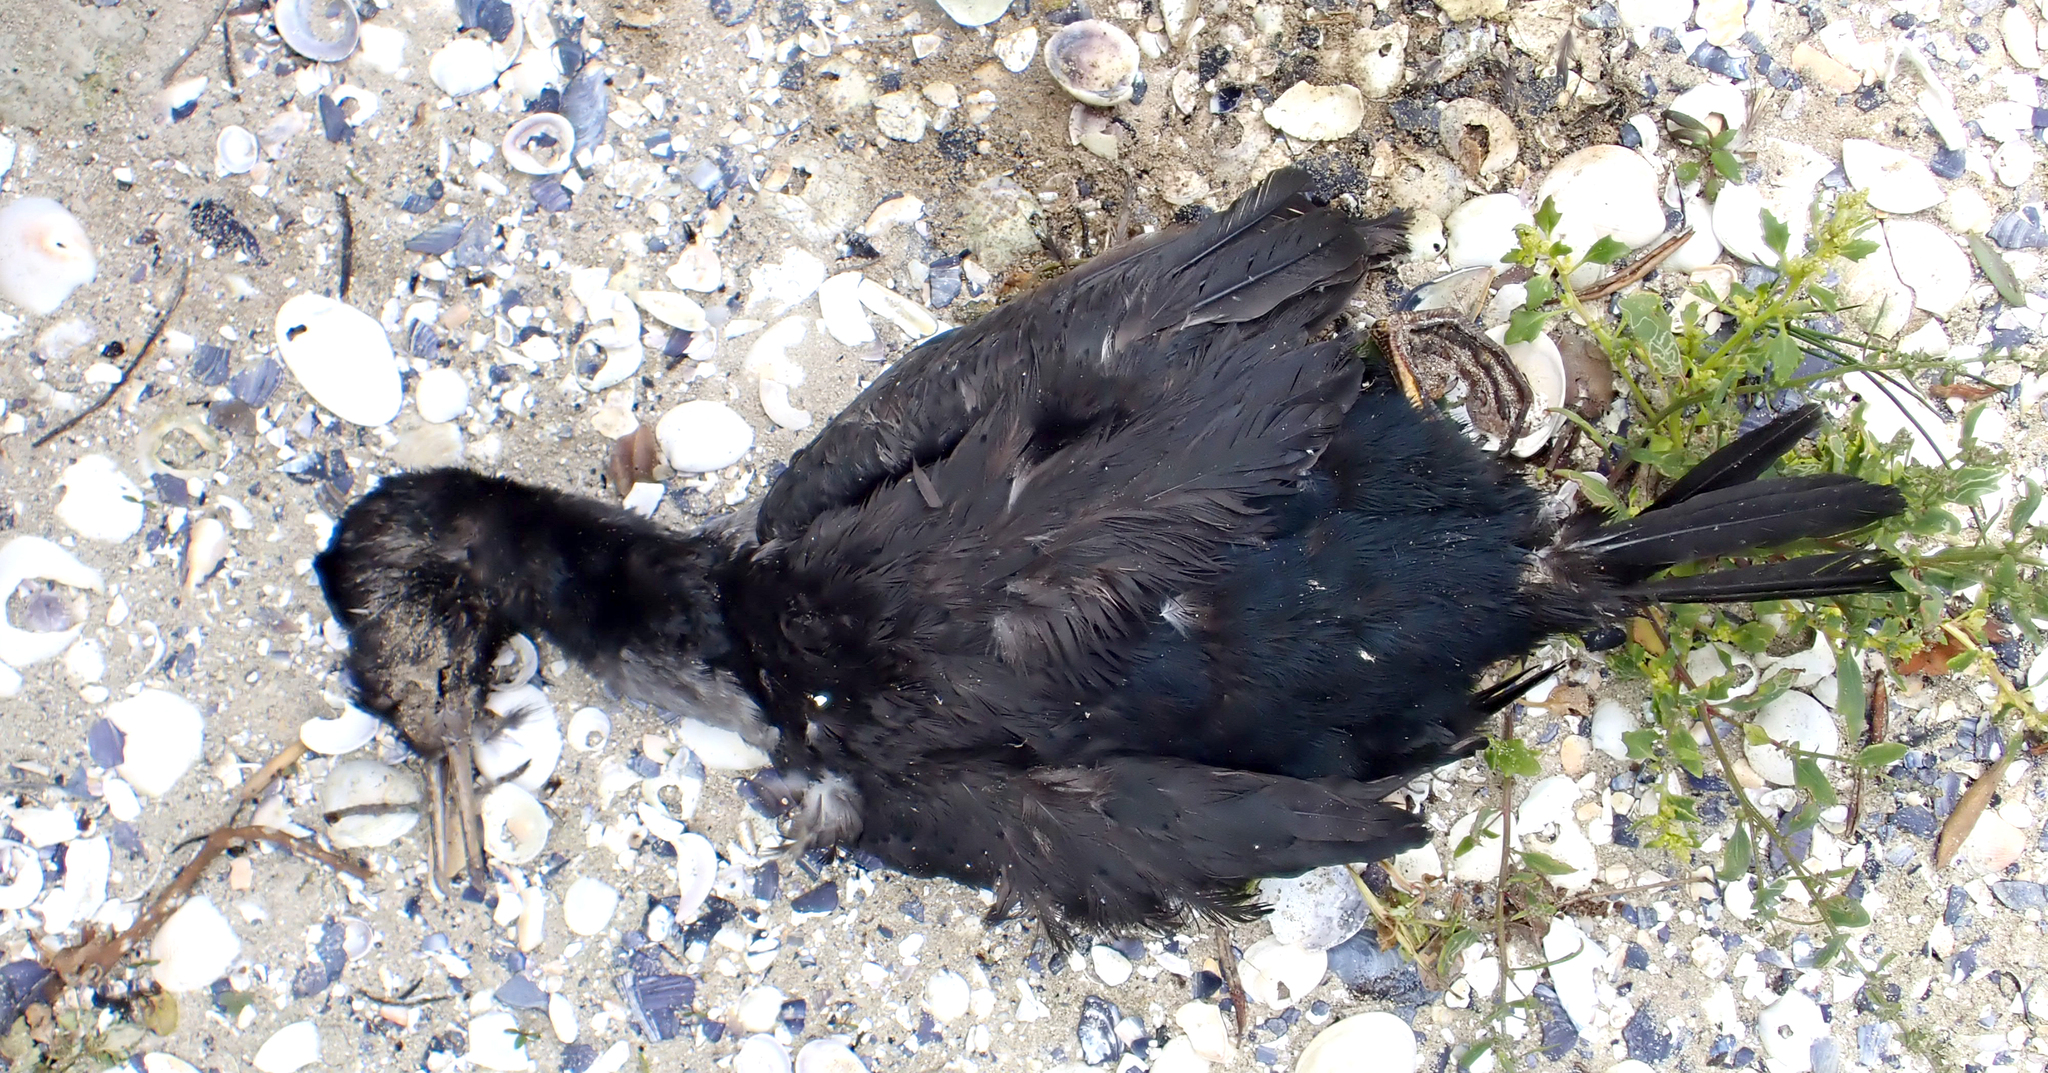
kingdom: Animalia
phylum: Chordata
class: Aves
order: Suliformes
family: Phalacrocoracidae
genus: Phalacrocorax
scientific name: Phalacrocorax featherstoni
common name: Pitt shag
